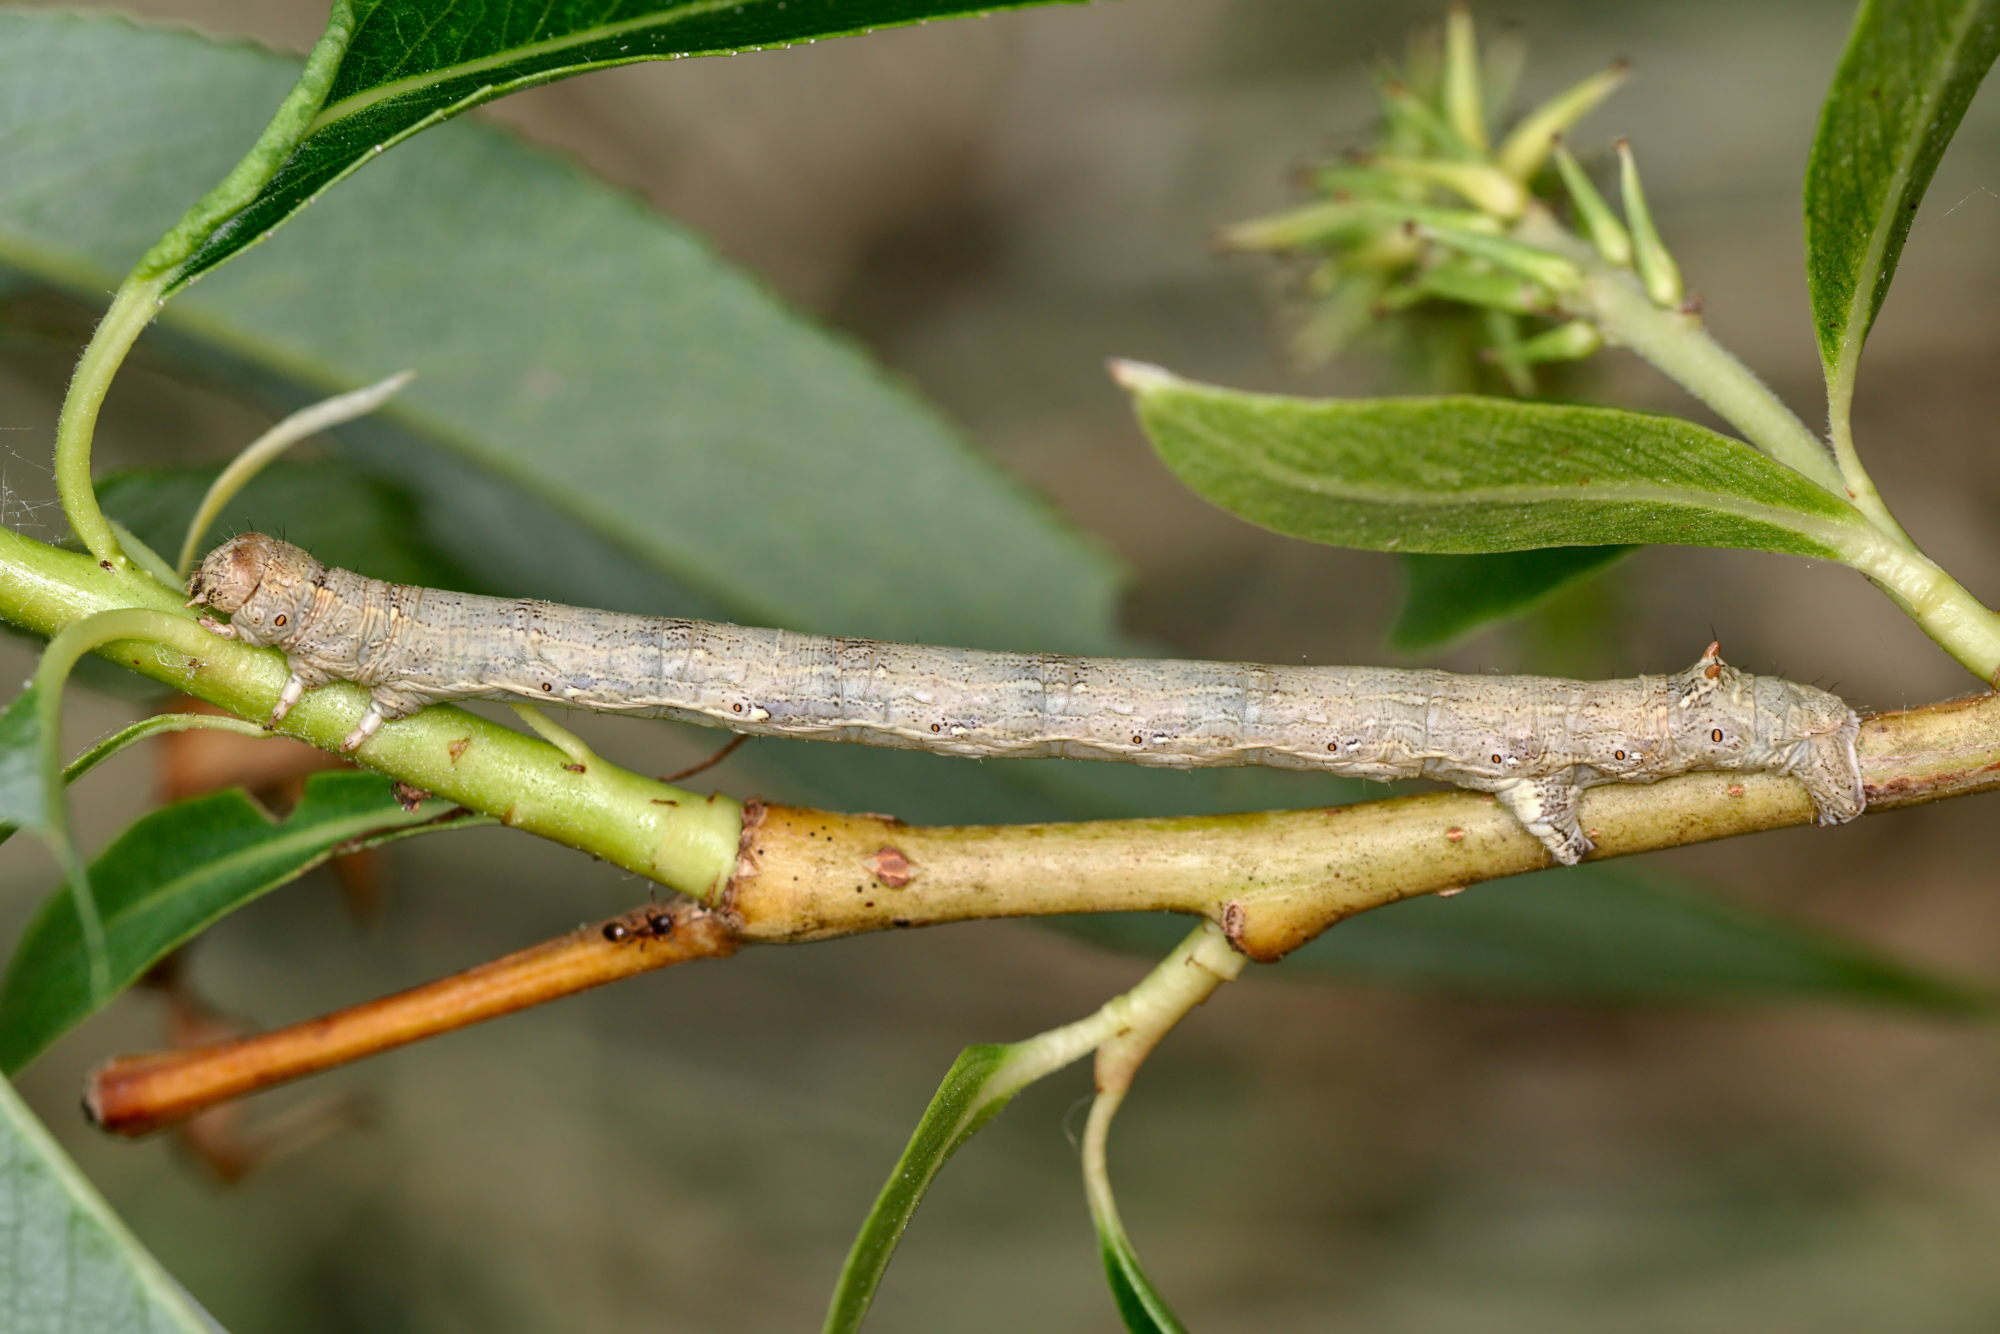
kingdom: Animalia
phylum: Arthropoda
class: Insecta
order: Lepidoptera
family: Geometridae
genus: Colotois
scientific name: Colotois pennaria
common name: Feathered thorn
